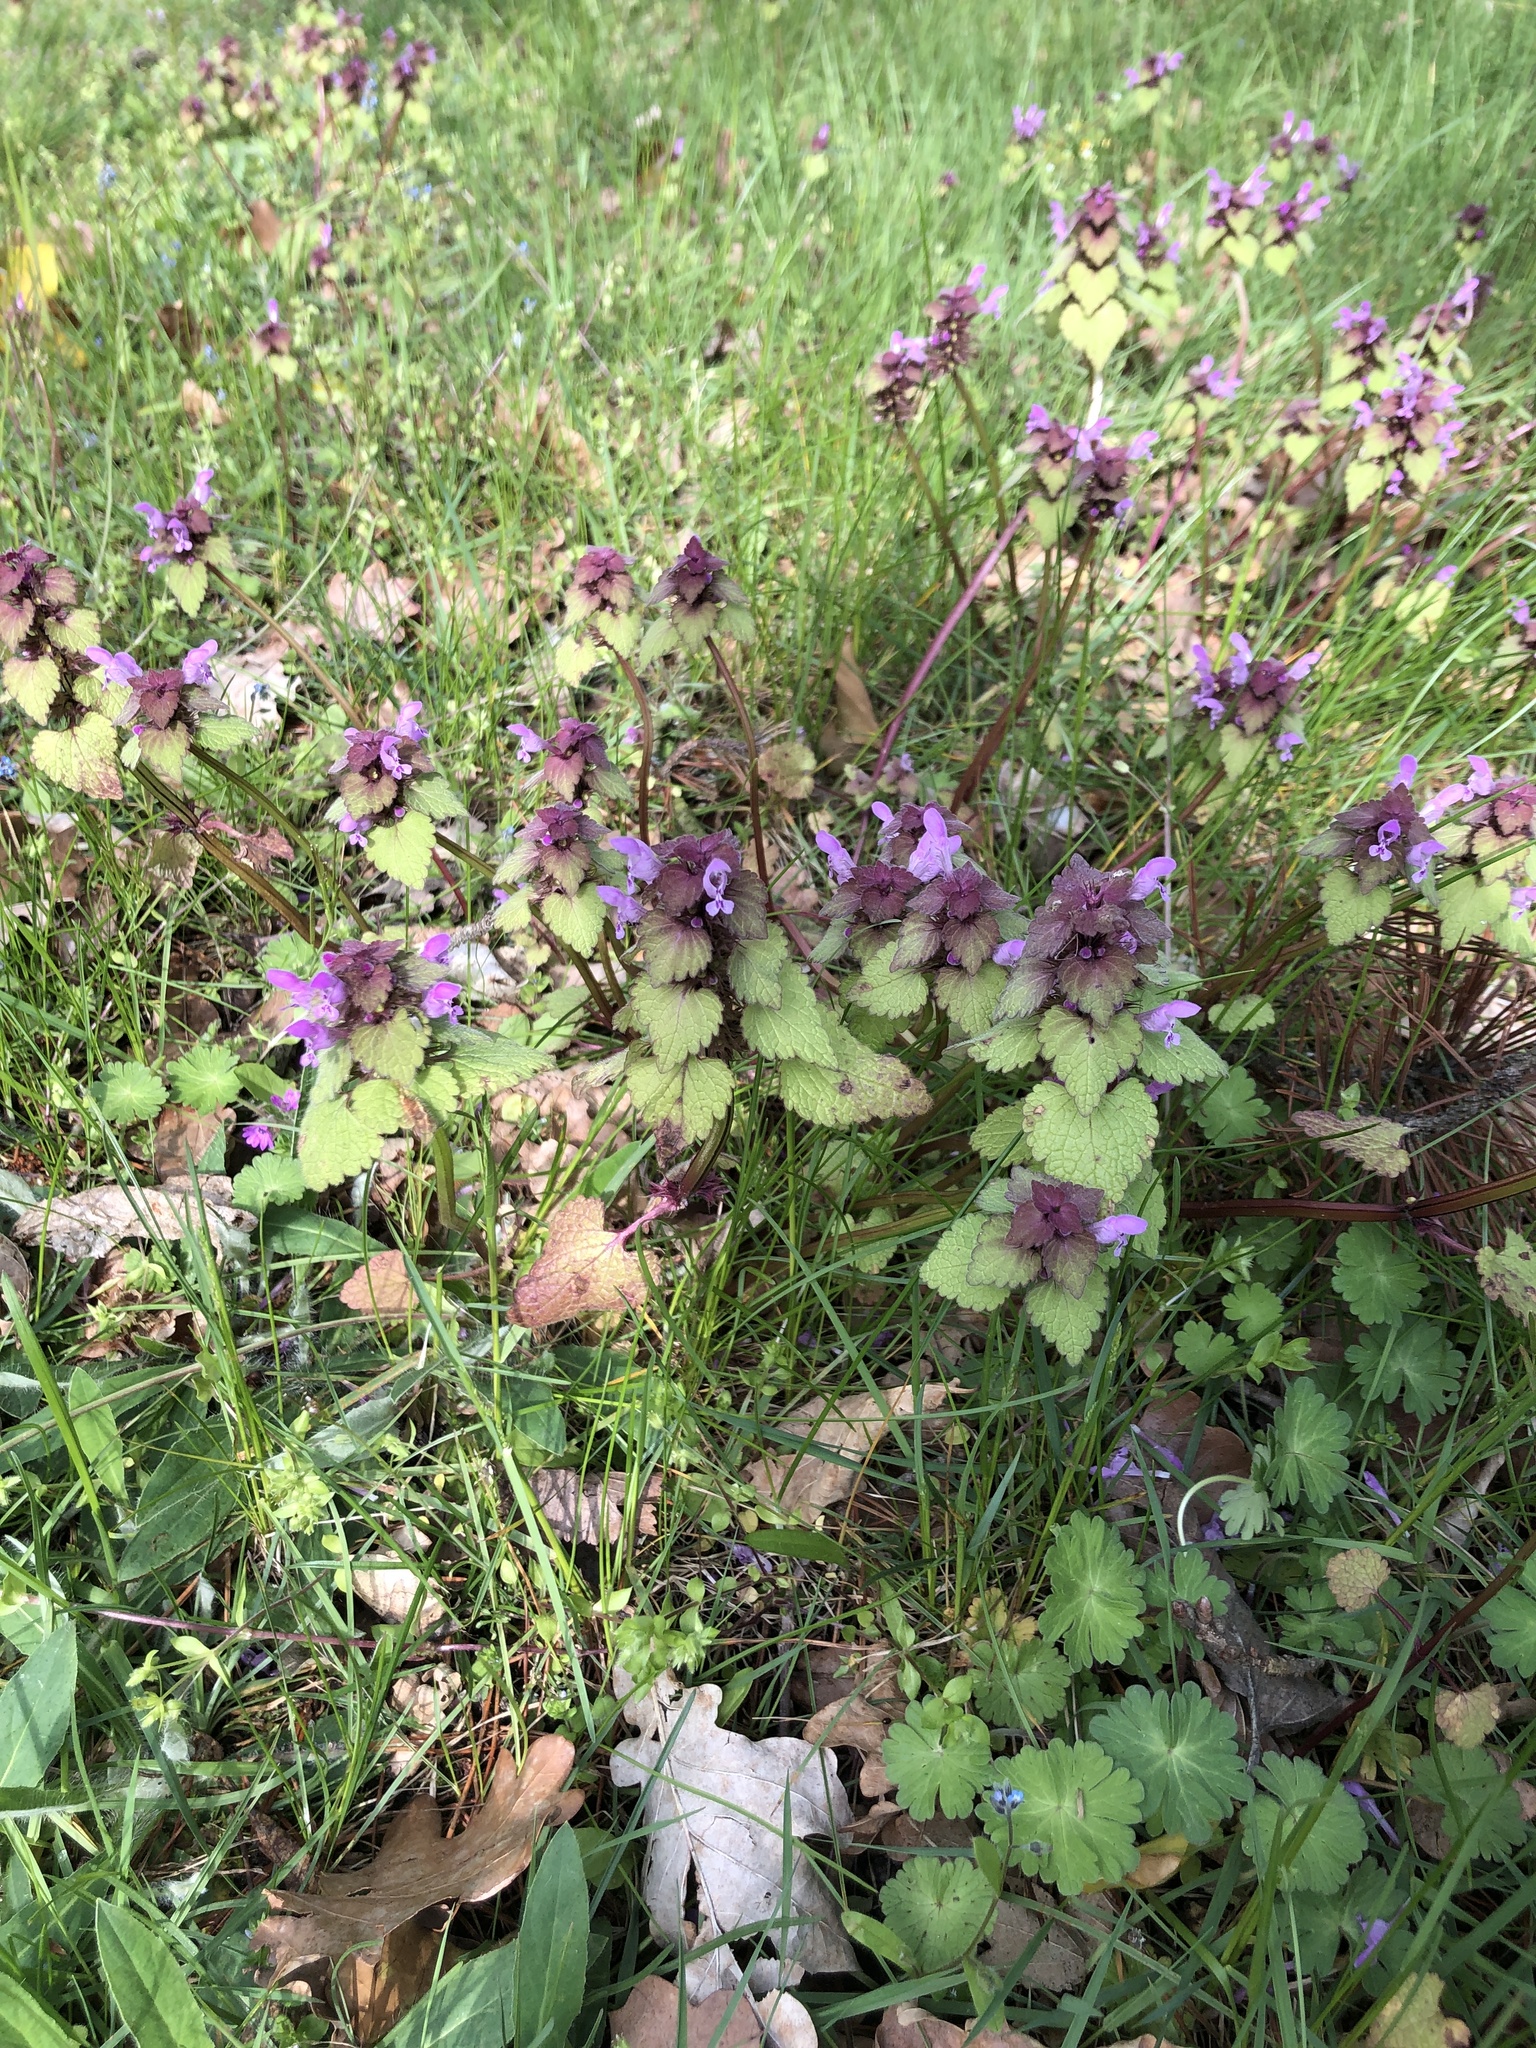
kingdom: Plantae
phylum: Tracheophyta
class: Magnoliopsida
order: Lamiales
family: Lamiaceae
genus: Lamium
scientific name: Lamium purpureum
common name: Red dead-nettle
